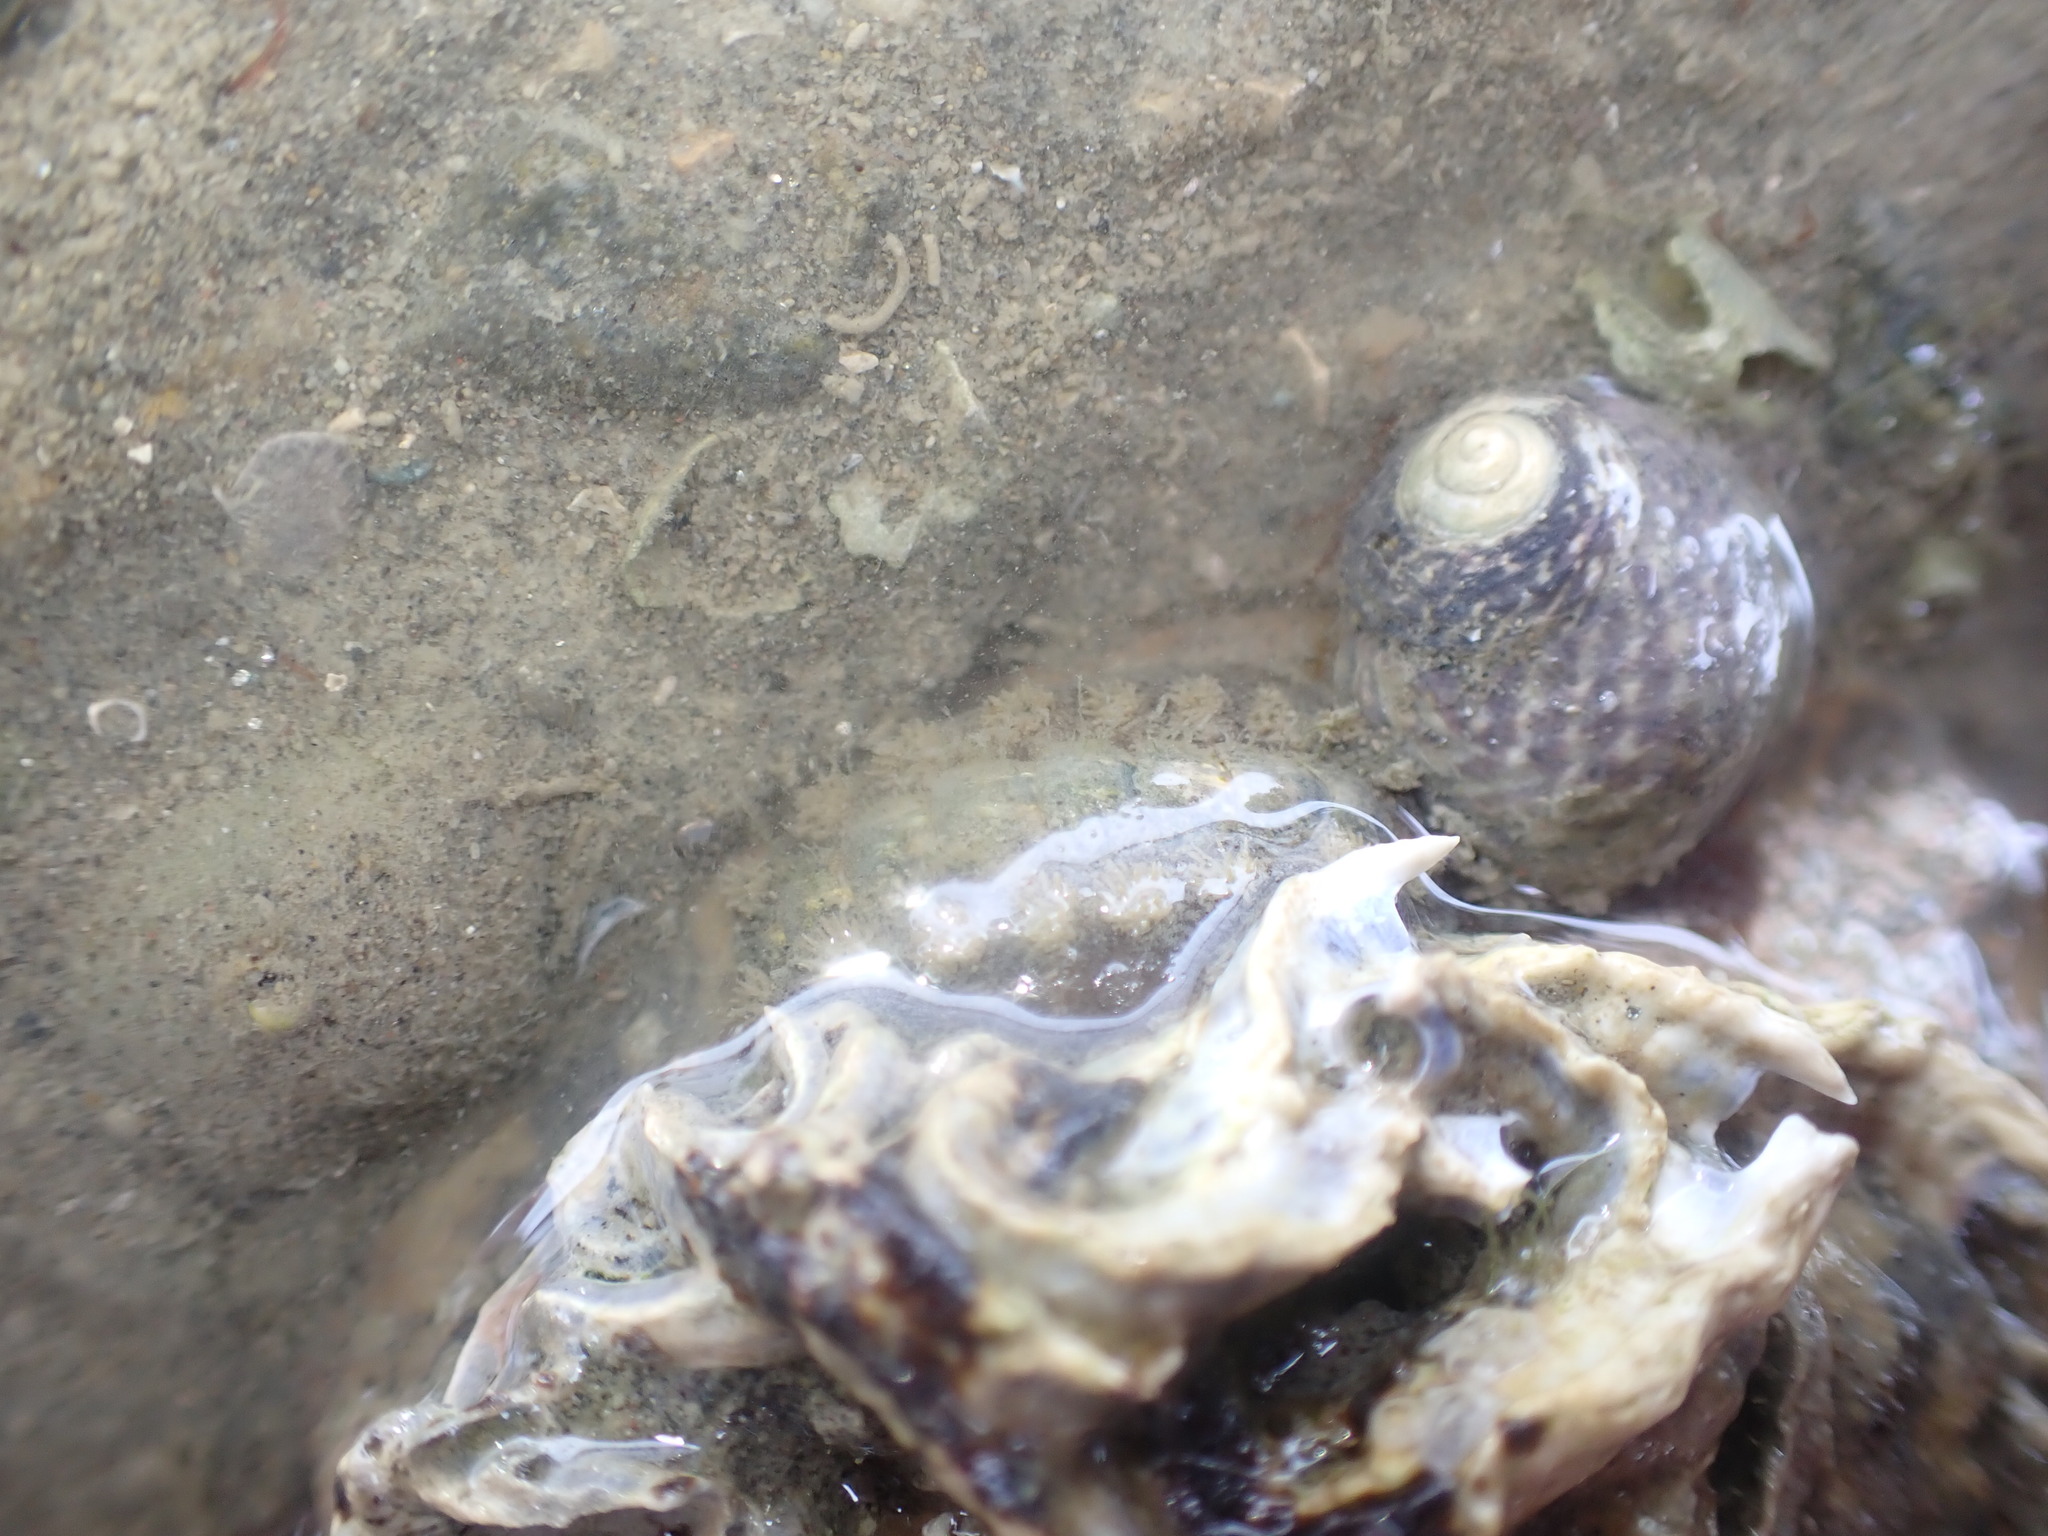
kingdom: Animalia
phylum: Mollusca
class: Polyplacophora
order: Chitonida
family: Acanthochitonidae
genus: Acanthochitona
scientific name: Acanthochitona zelandica
